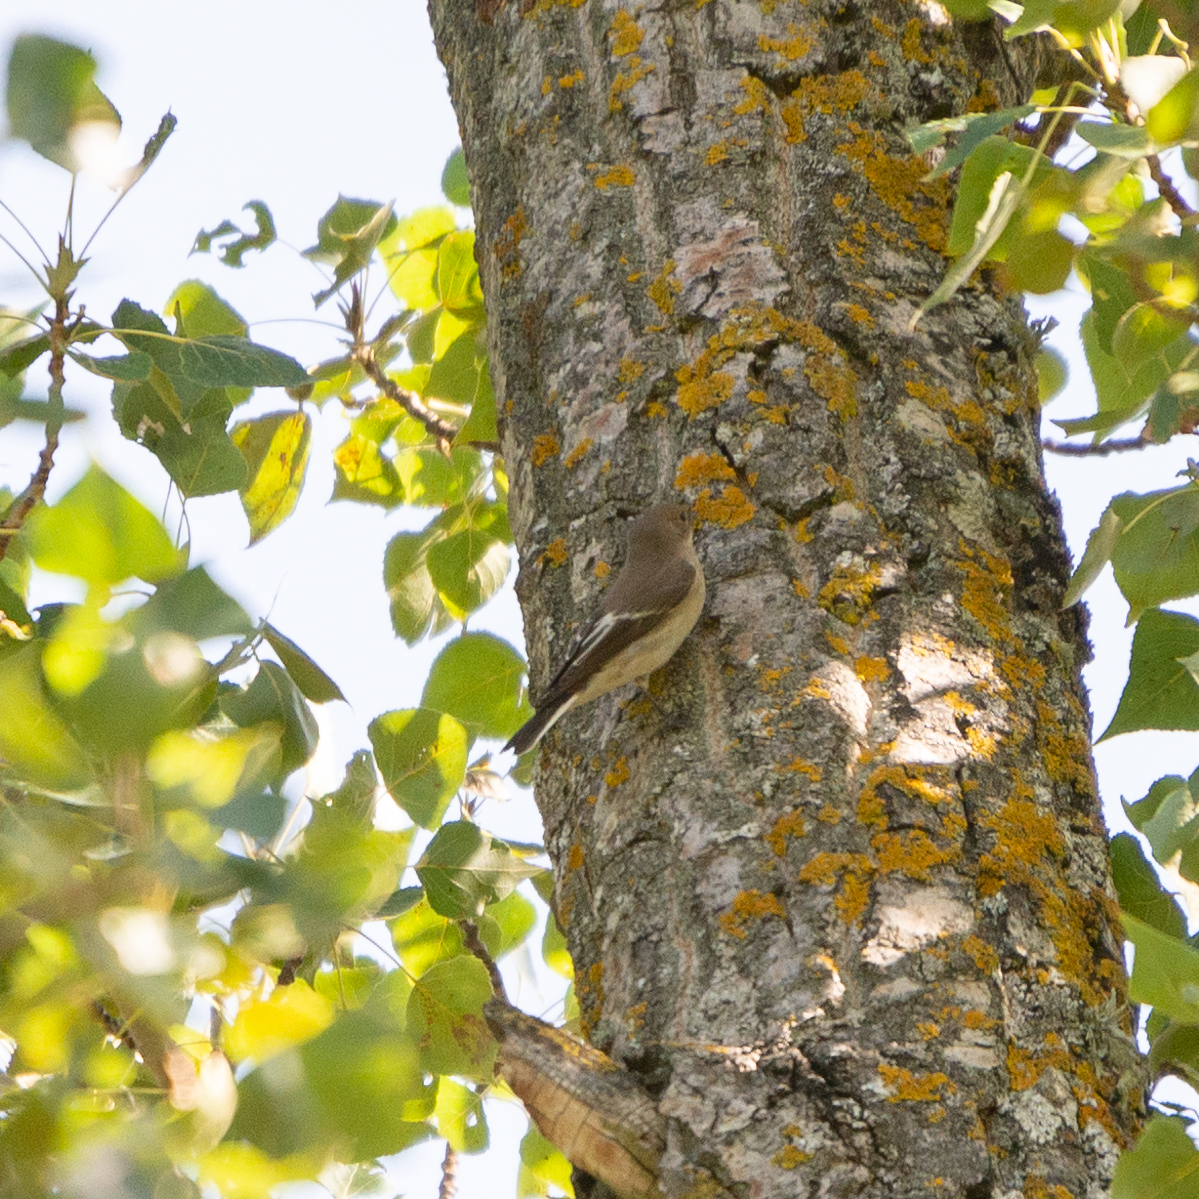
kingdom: Animalia
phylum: Chordata
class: Aves
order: Passeriformes
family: Muscicapidae
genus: Ficedula
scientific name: Ficedula hypoleuca
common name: European pied flycatcher
